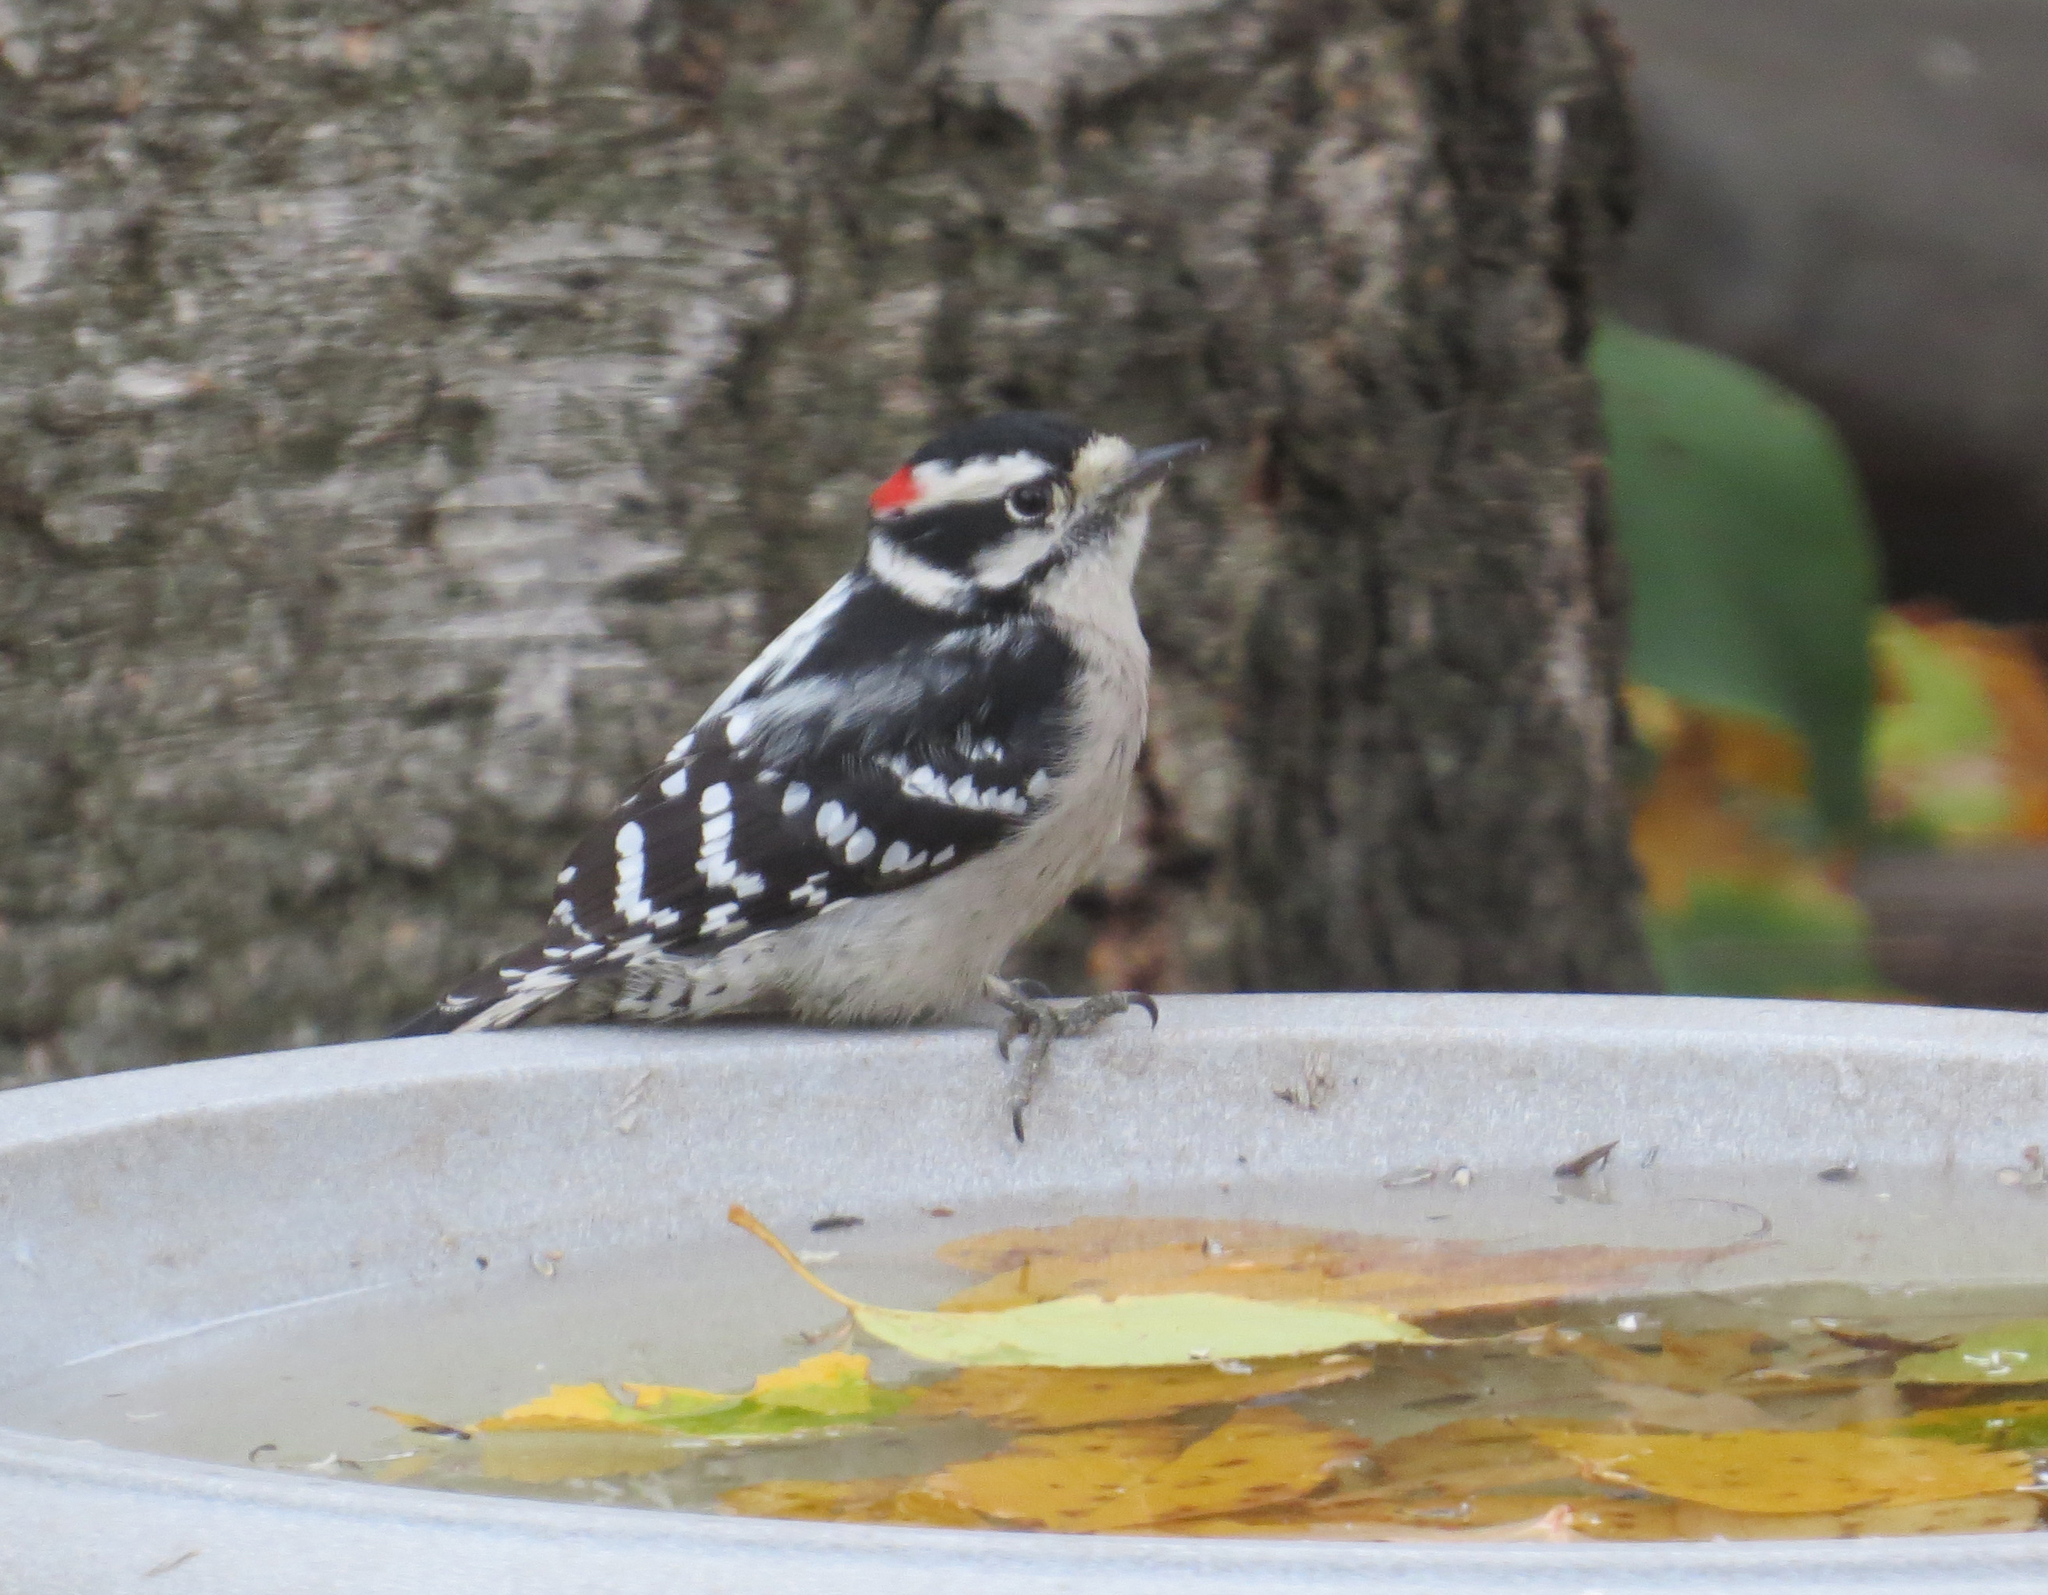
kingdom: Animalia
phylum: Chordata
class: Aves
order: Piciformes
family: Picidae
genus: Dryobates
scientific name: Dryobates pubescens
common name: Downy woodpecker
